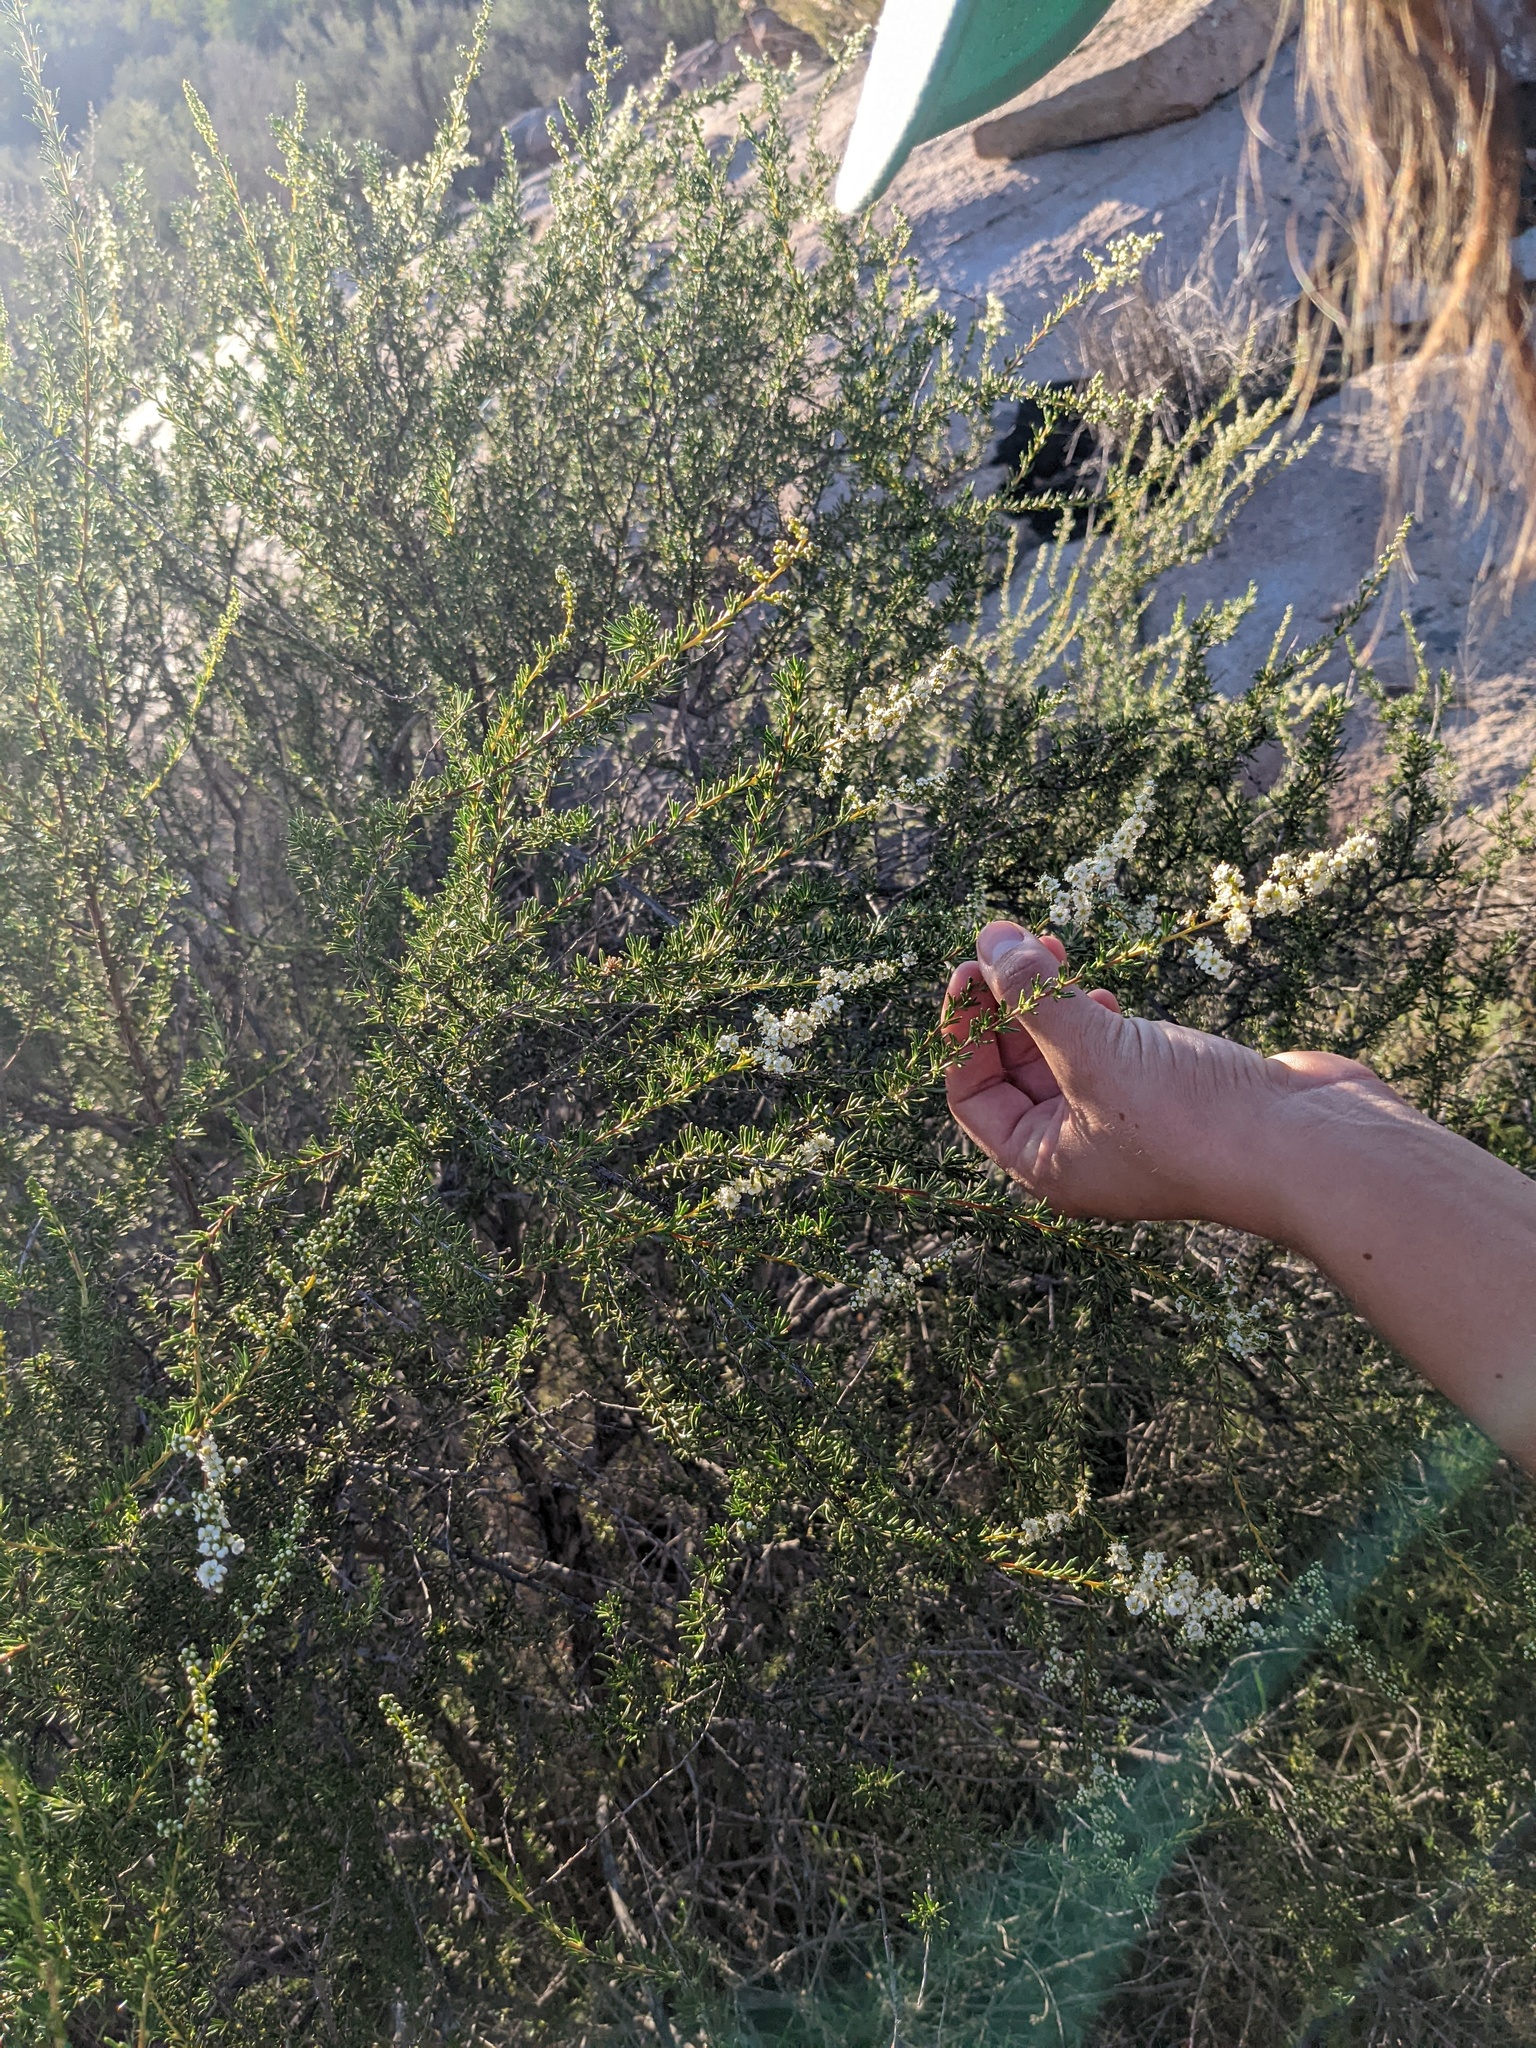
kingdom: Plantae
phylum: Tracheophyta
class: Magnoliopsida
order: Rosales
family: Rosaceae
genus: Adenostoma
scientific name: Adenostoma fasciculatum
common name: Chamise
